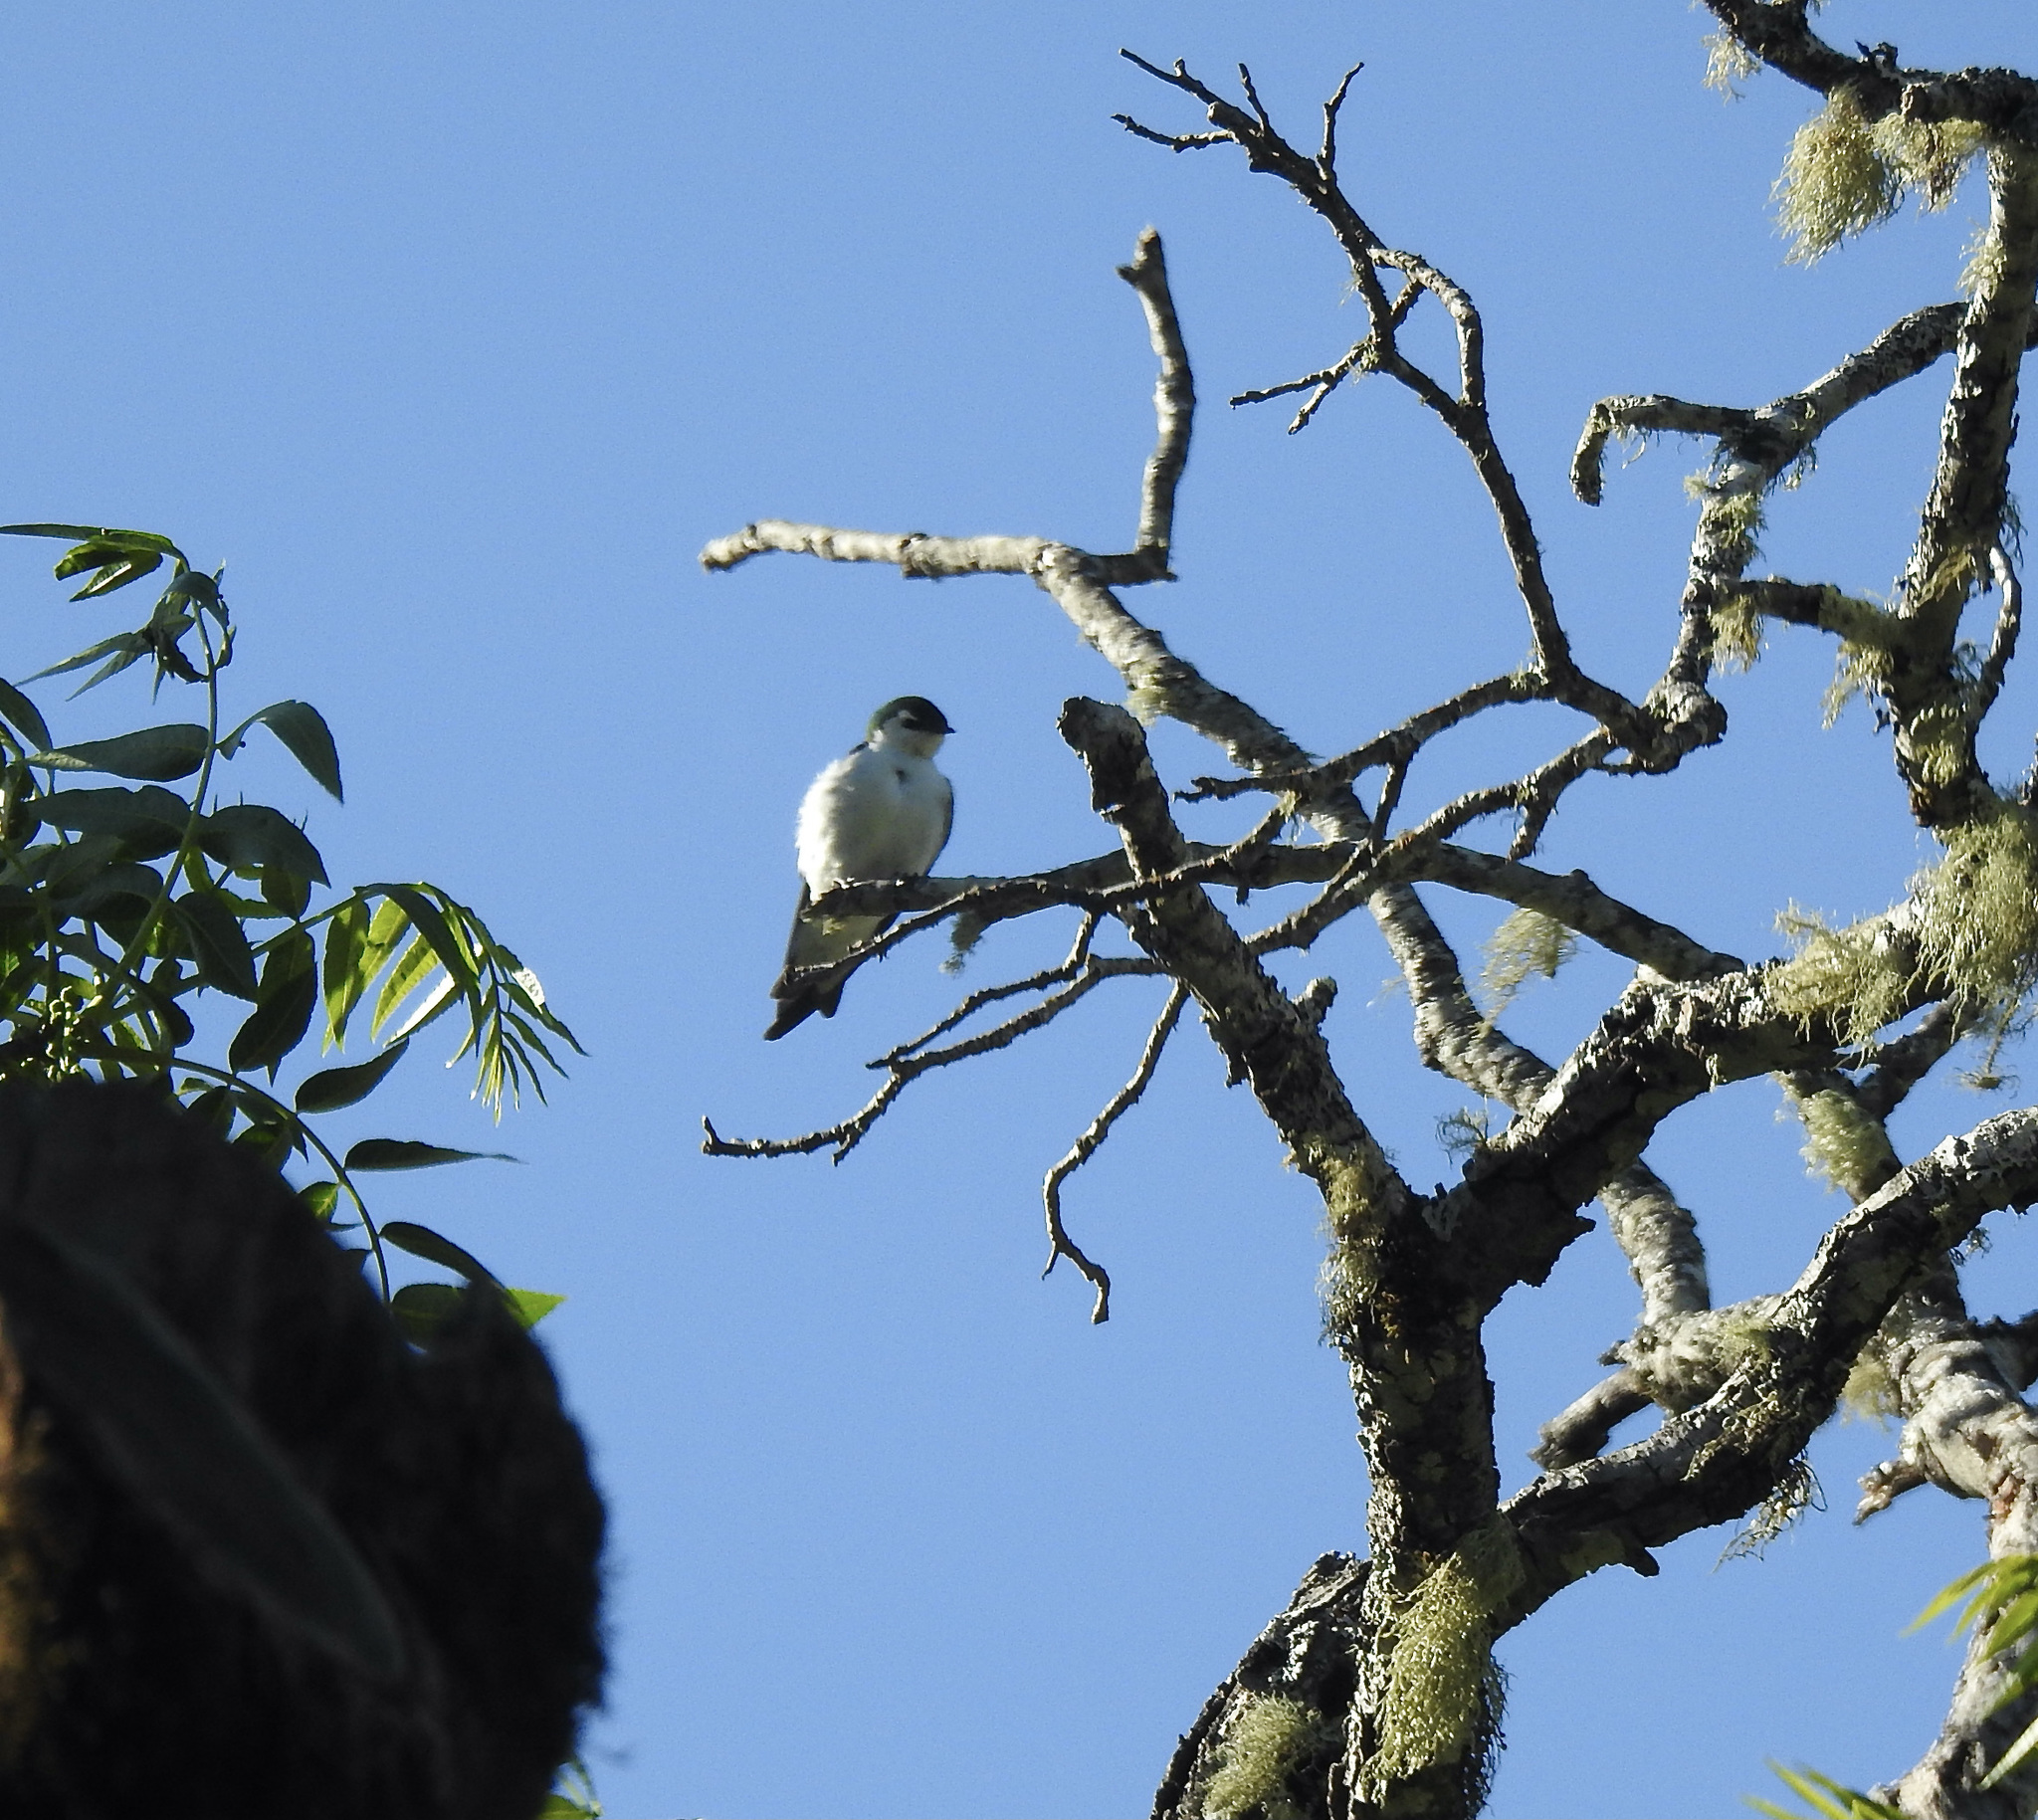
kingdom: Animalia
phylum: Chordata
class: Aves
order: Passeriformes
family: Hirundinidae
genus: Tachycineta
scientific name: Tachycineta thalassina
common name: Violet-green swallow
